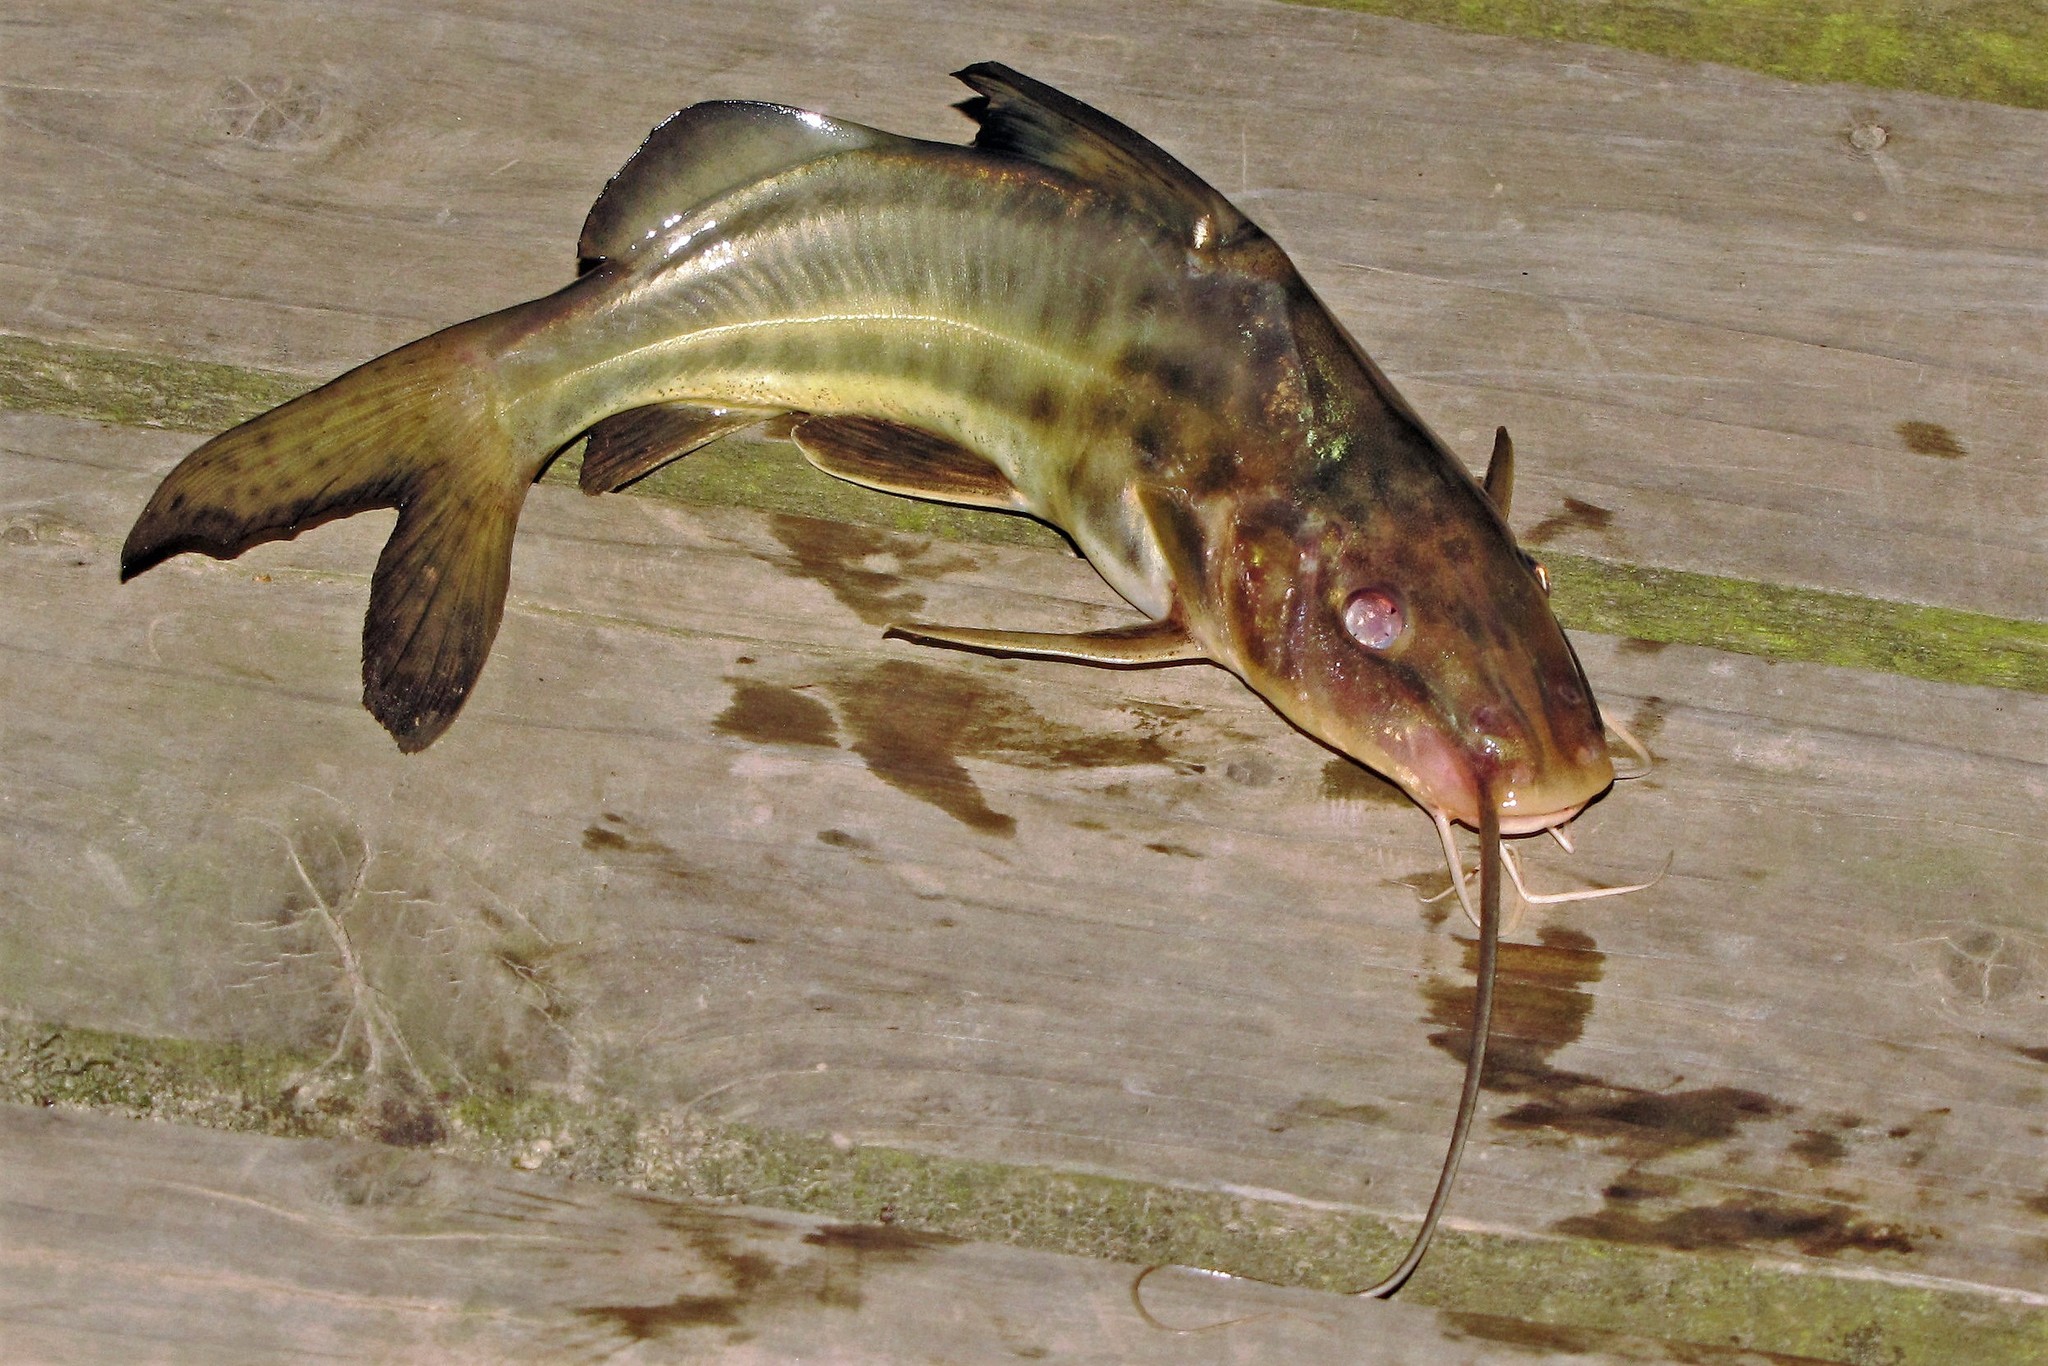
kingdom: Animalia
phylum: Chordata
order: Siluriformes
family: Pimelodidae
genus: Pimelodus
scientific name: Pimelodus maculatus
